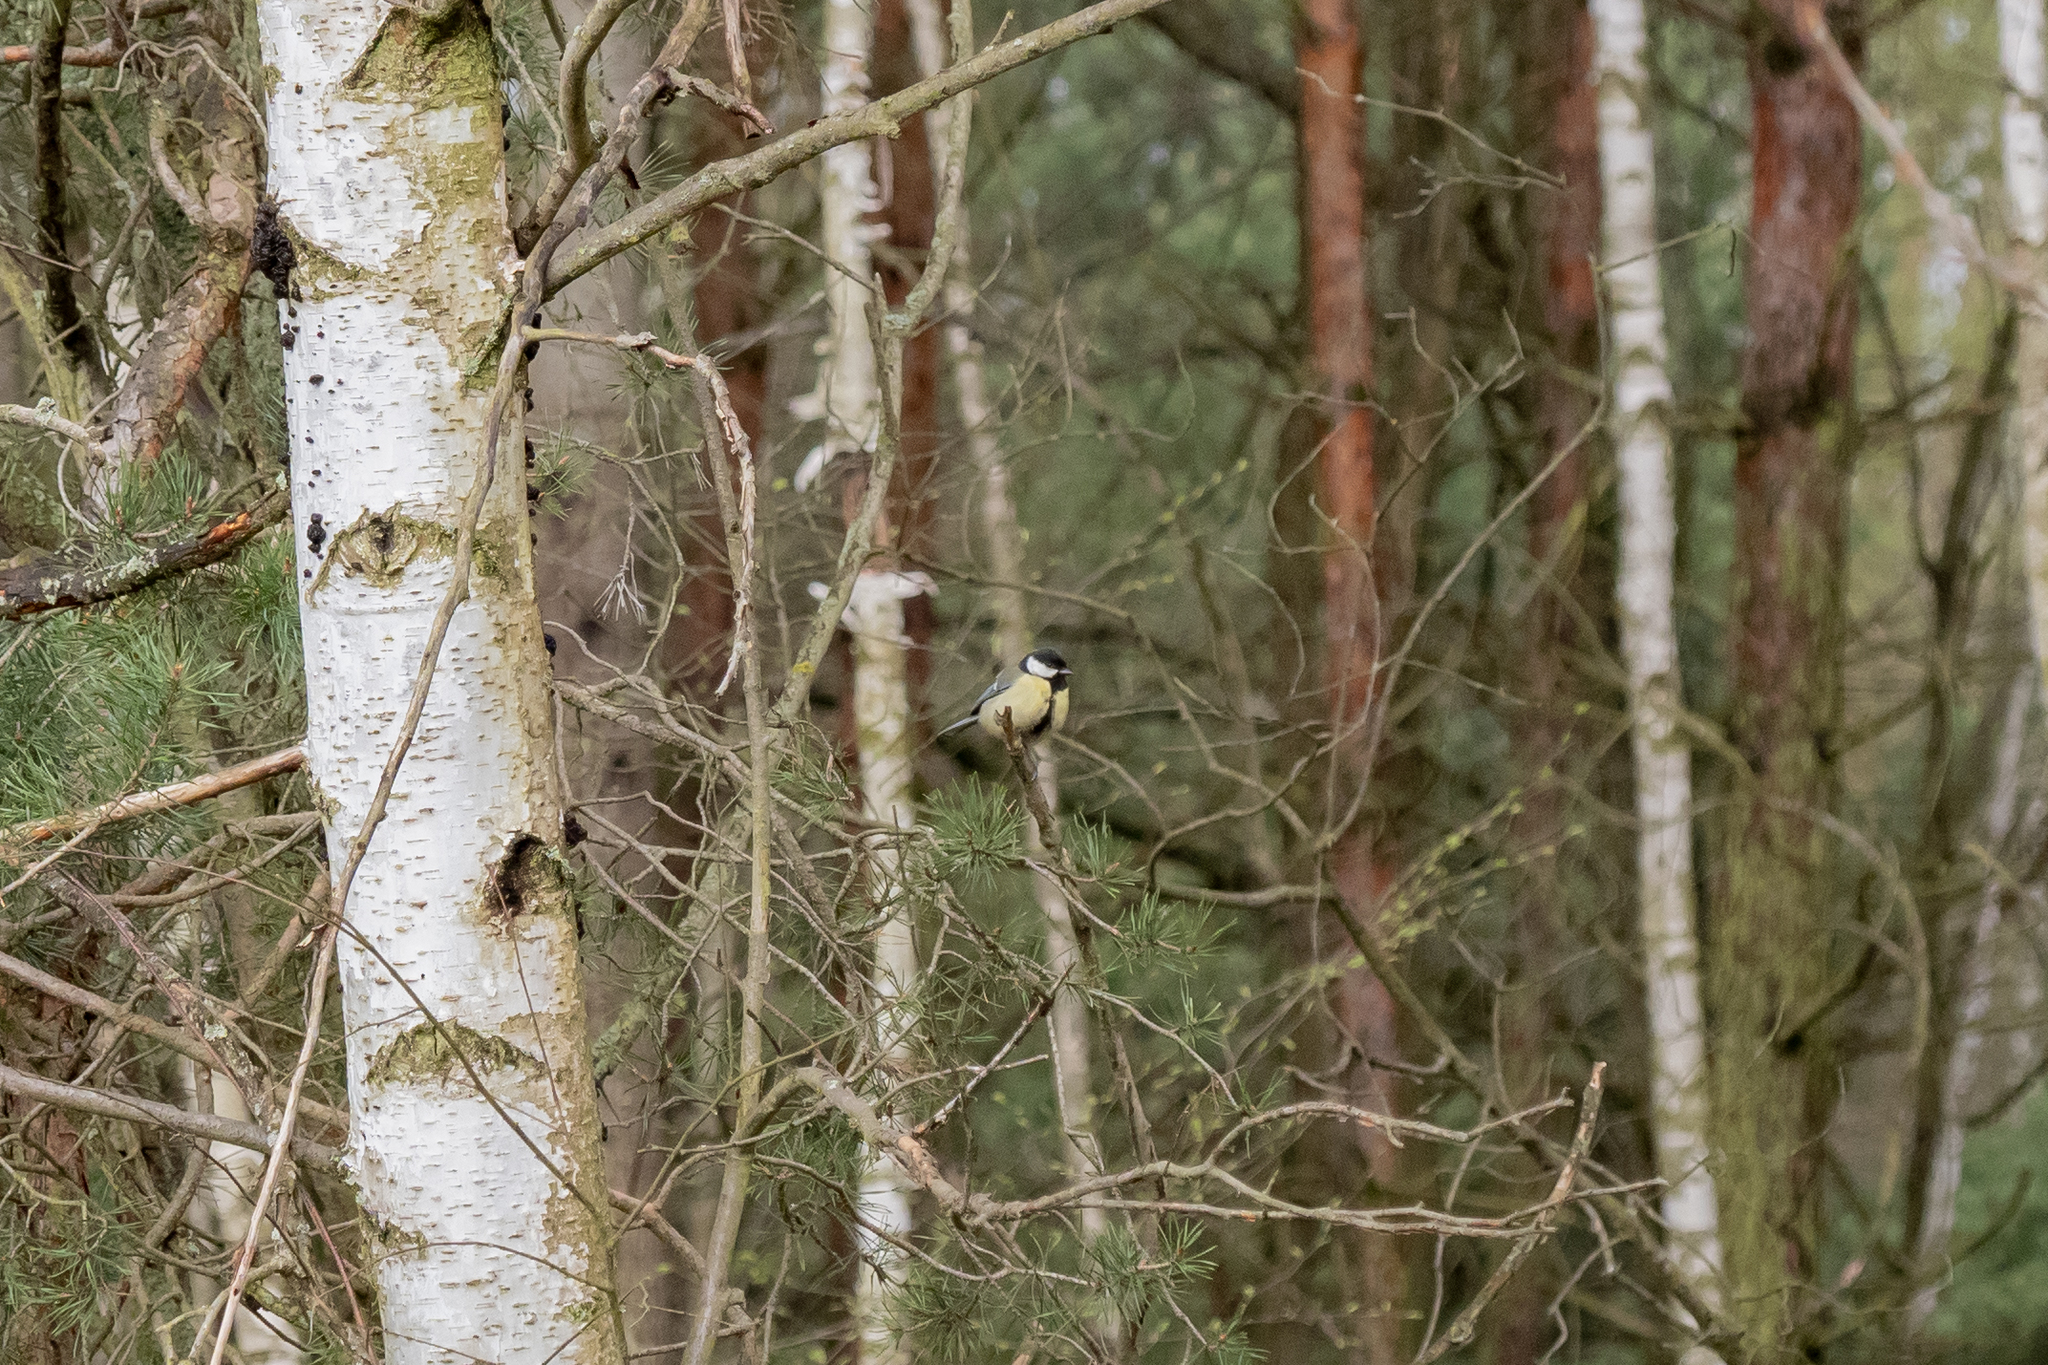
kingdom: Animalia
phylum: Chordata
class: Aves
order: Passeriformes
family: Paridae
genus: Parus
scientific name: Parus major
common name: Great tit
